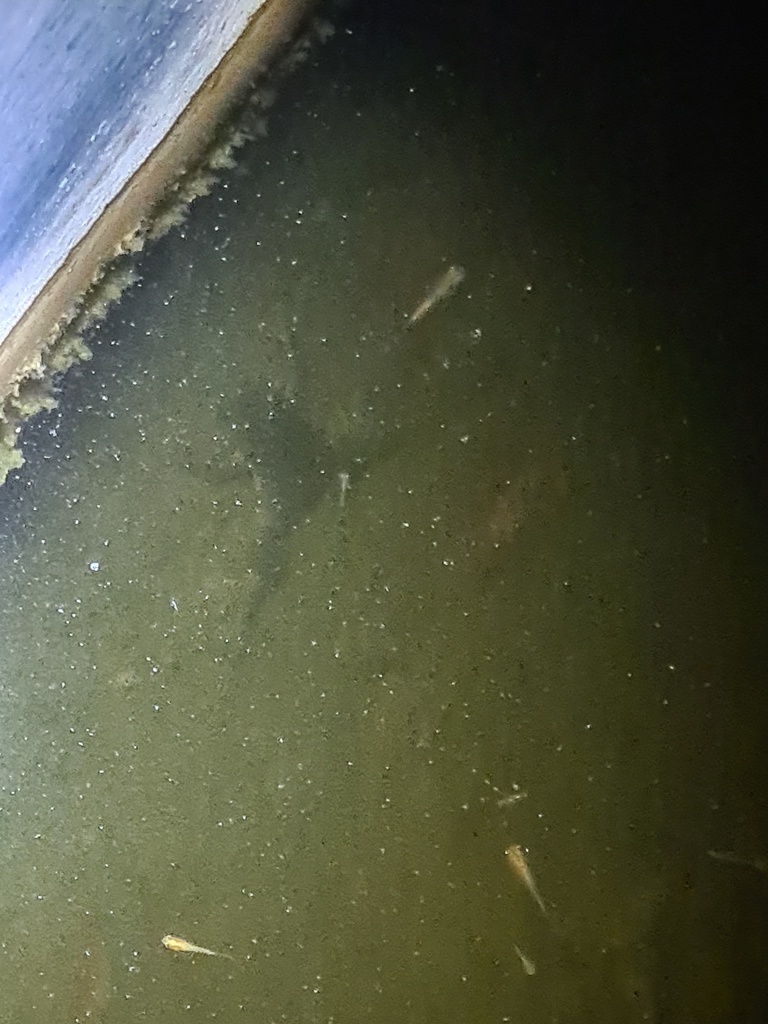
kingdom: Animalia
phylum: Chordata
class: Amphibia
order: Anura
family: Pipidae
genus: Xenopus
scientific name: Xenopus laevis
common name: African clawed frog
